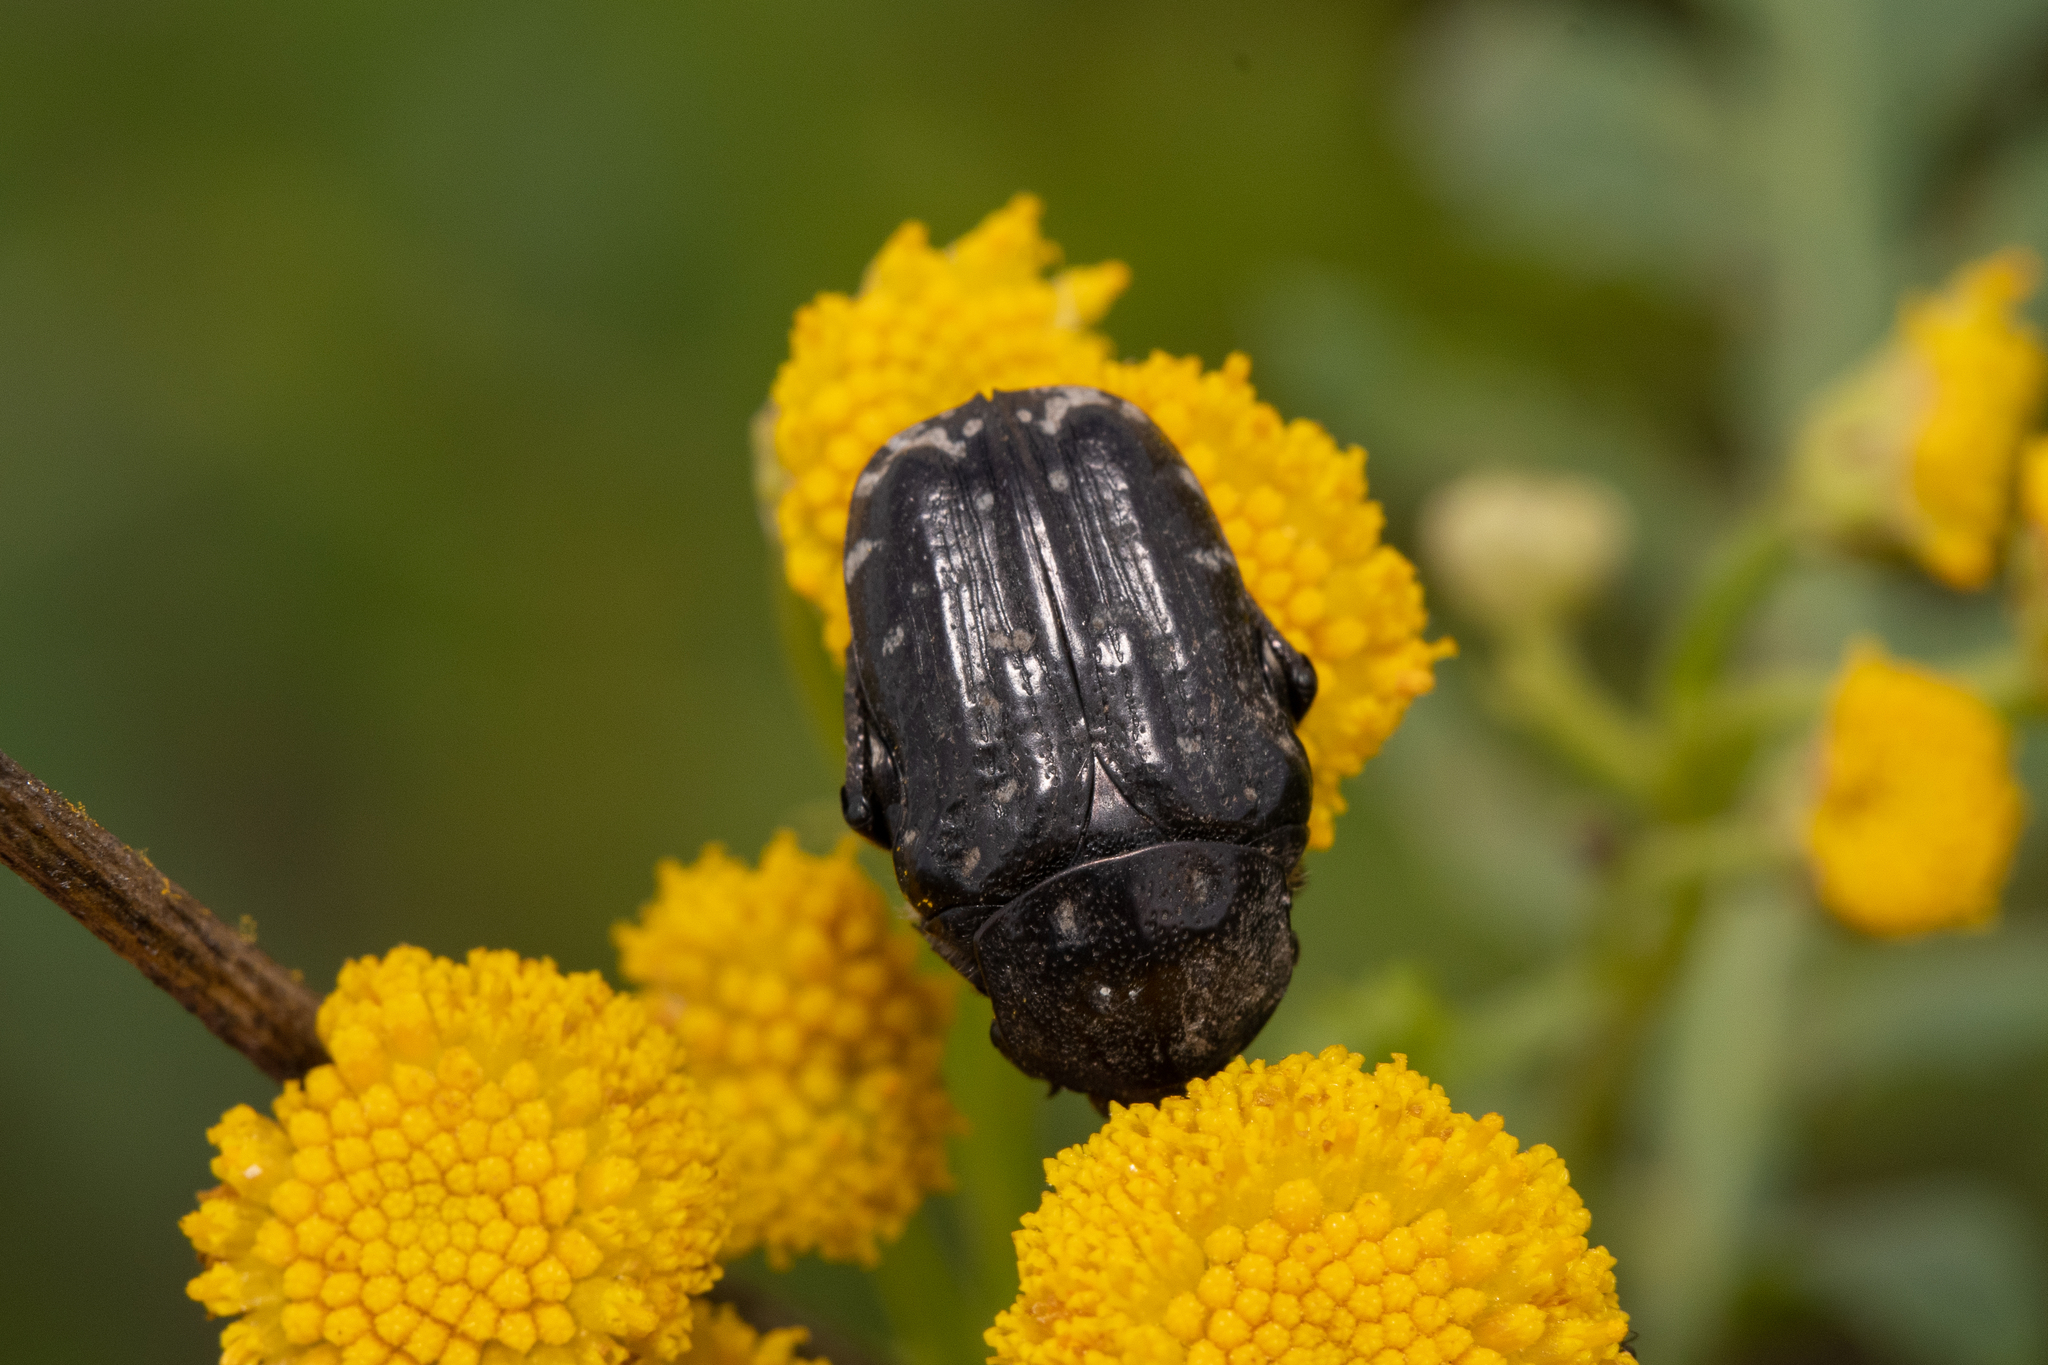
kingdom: Animalia
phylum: Arthropoda
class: Insecta
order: Coleoptera
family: Scarabaeidae
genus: Oxythyrea
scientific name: Oxythyrea funesta
